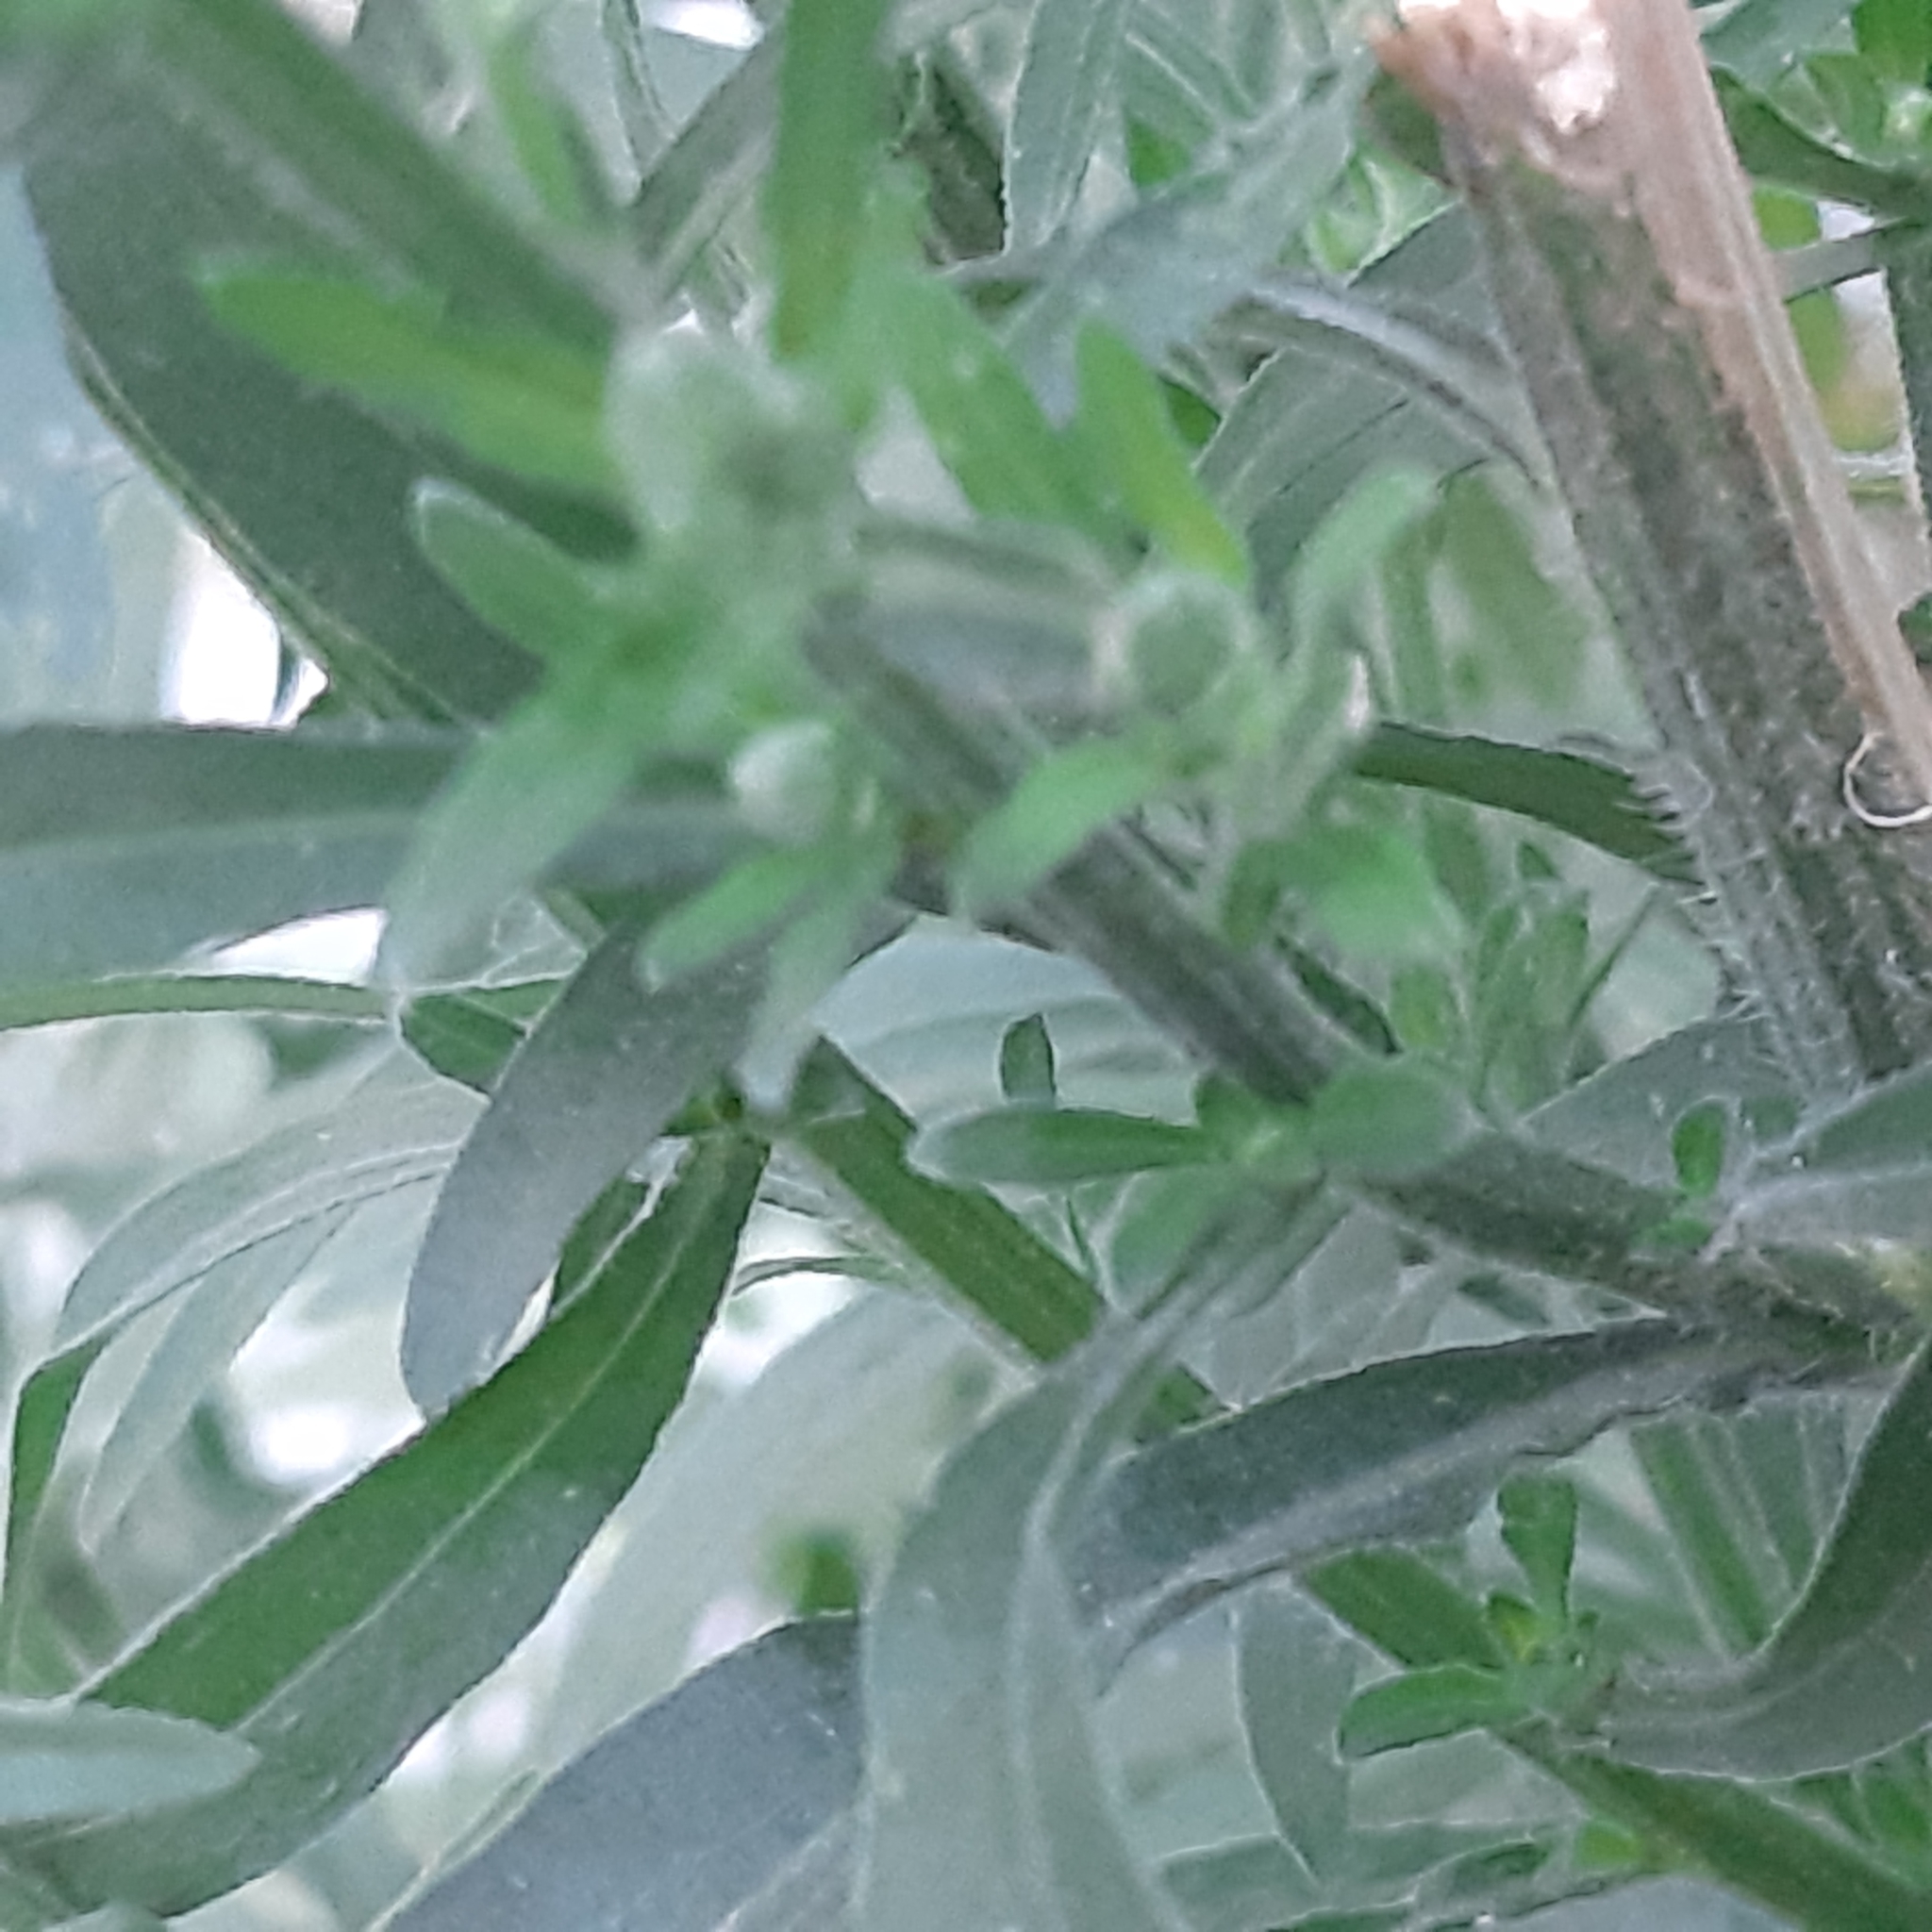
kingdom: Plantae
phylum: Tracheophyta
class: Magnoliopsida
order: Asterales
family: Asteraceae
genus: Erigeron
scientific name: Erigeron sumatrensis
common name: Daisy
